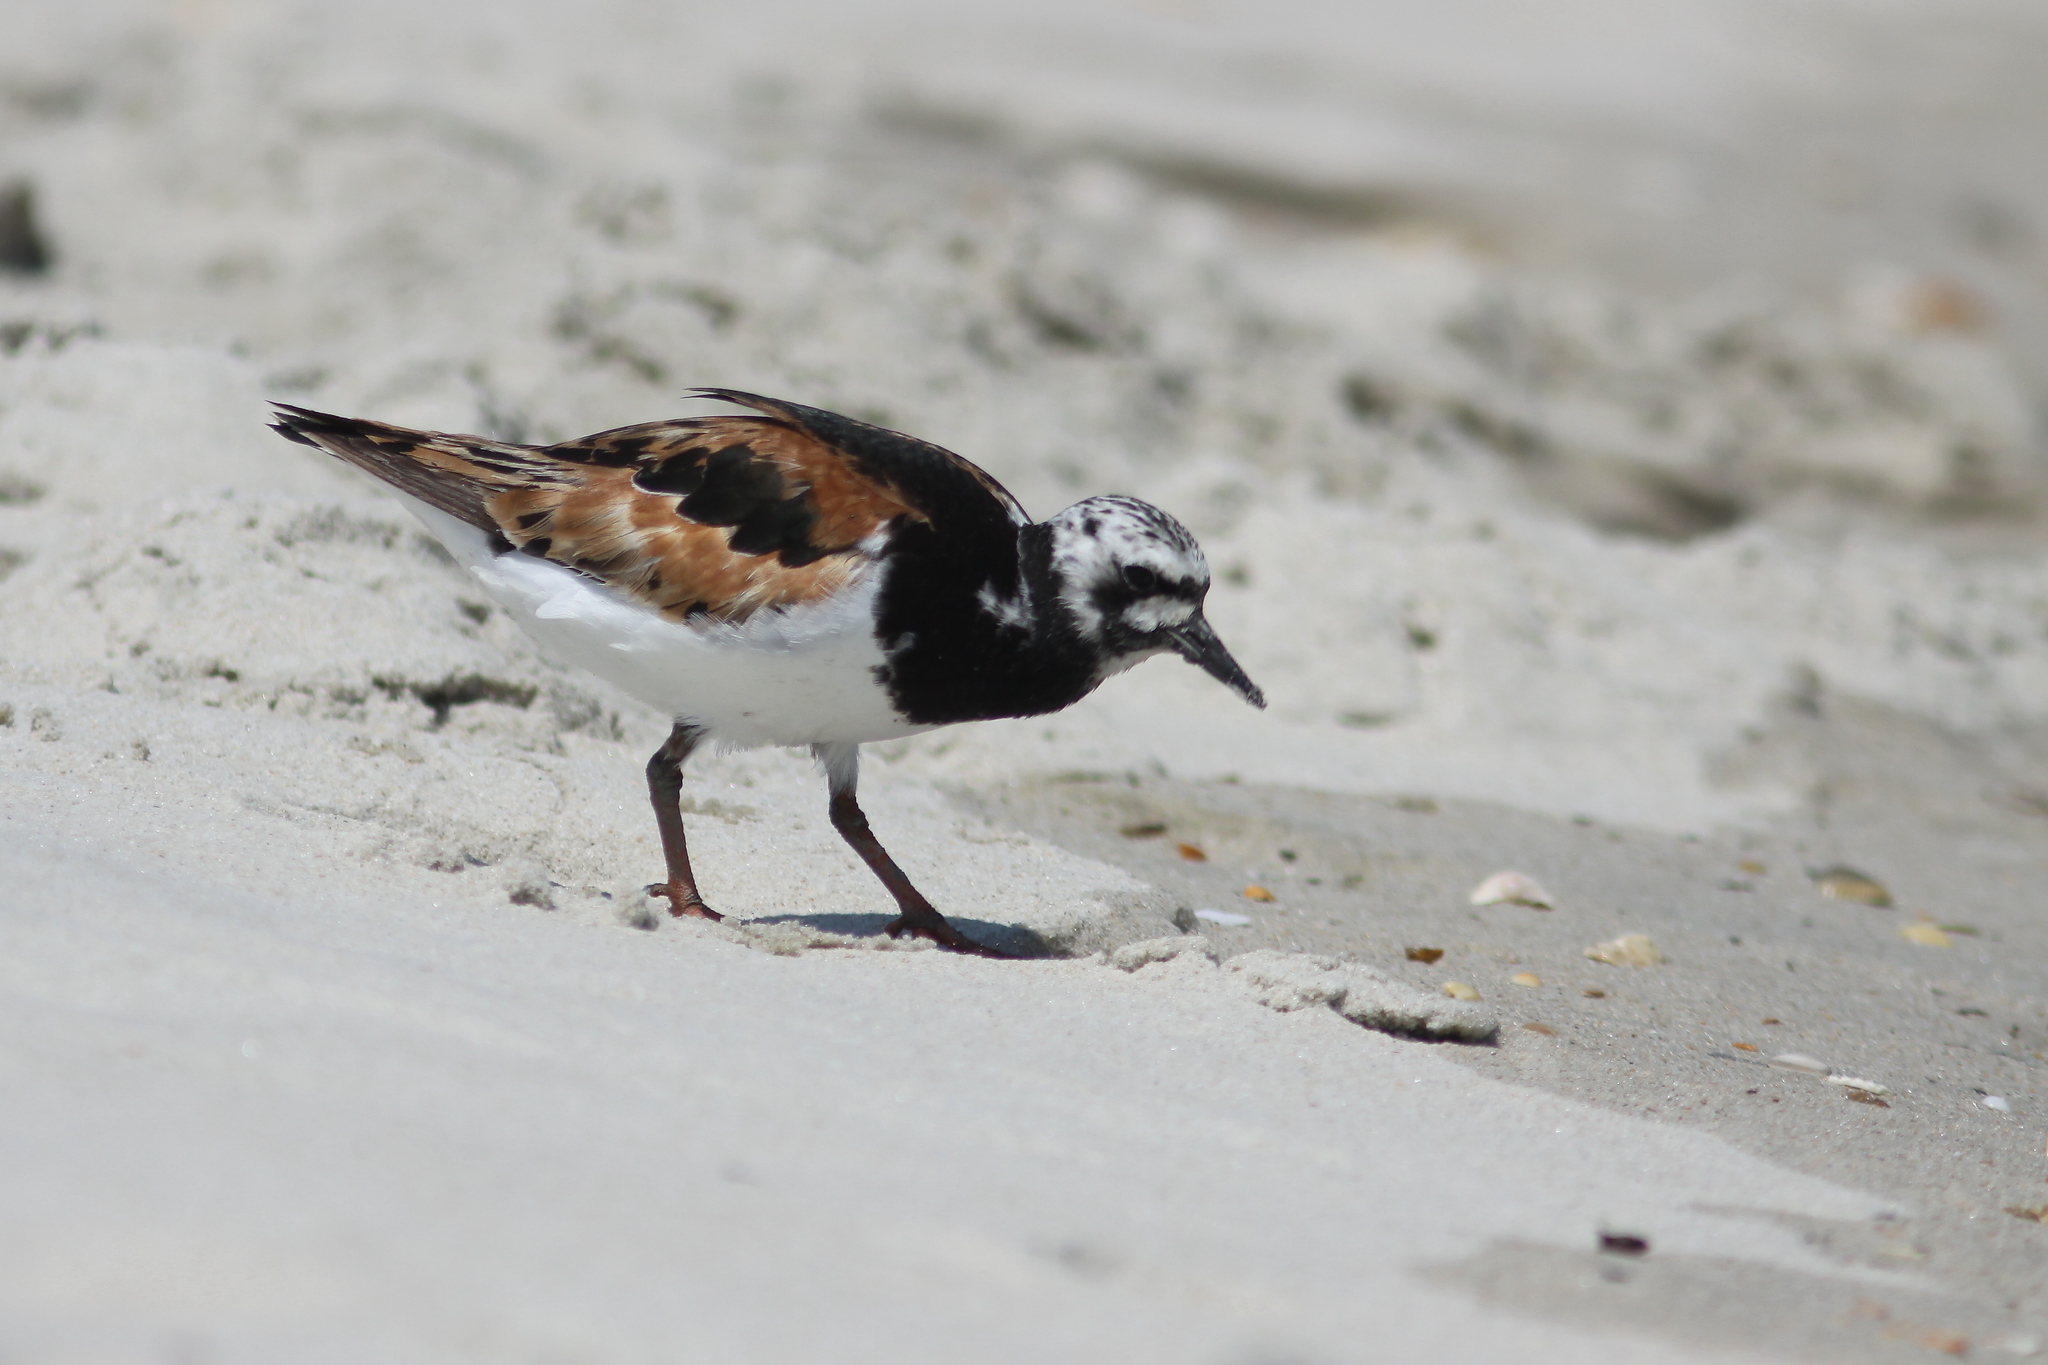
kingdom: Animalia
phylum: Chordata
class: Aves
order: Charadriiformes
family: Scolopacidae
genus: Arenaria
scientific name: Arenaria interpres
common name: Ruddy turnstone
